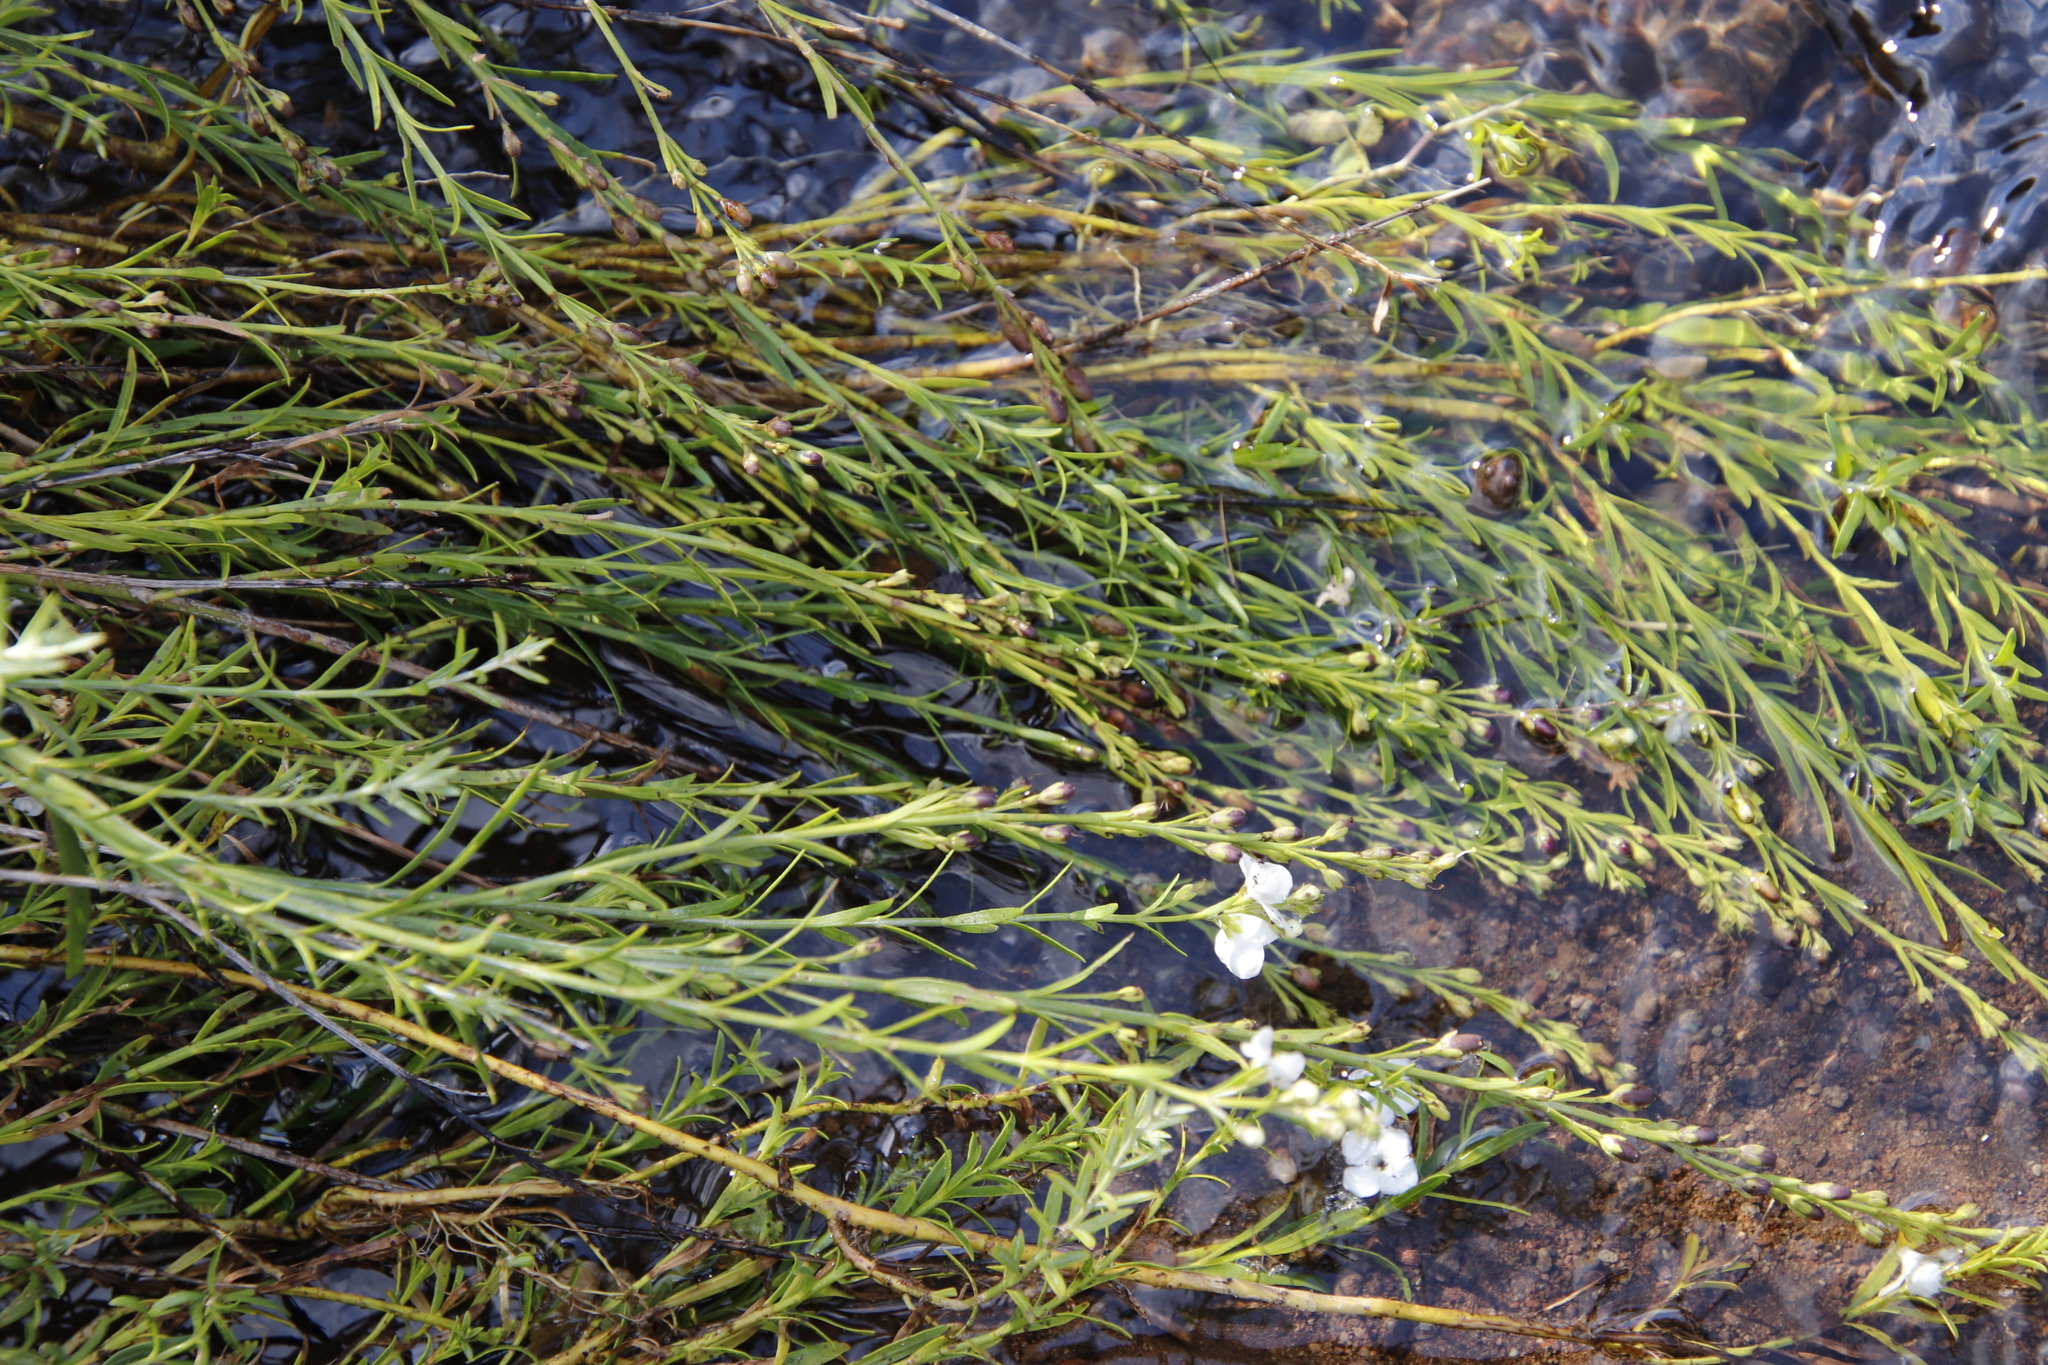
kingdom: Plantae
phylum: Tracheophyta
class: Magnoliopsida
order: Lamiales
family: Scrophulariaceae
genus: Buddleja
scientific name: Buddleja virgata
